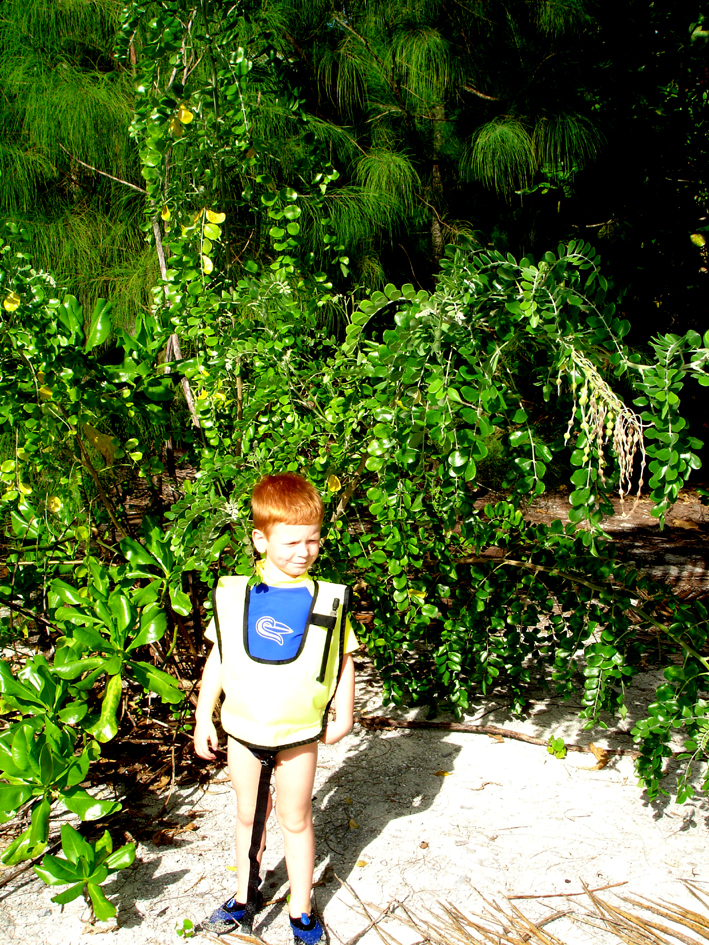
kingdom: Plantae
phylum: Tracheophyta
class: Magnoliopsida
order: Fabales
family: Fabaceae
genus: Sophora
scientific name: Sophora tomentosa
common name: Yellow necklacepod
